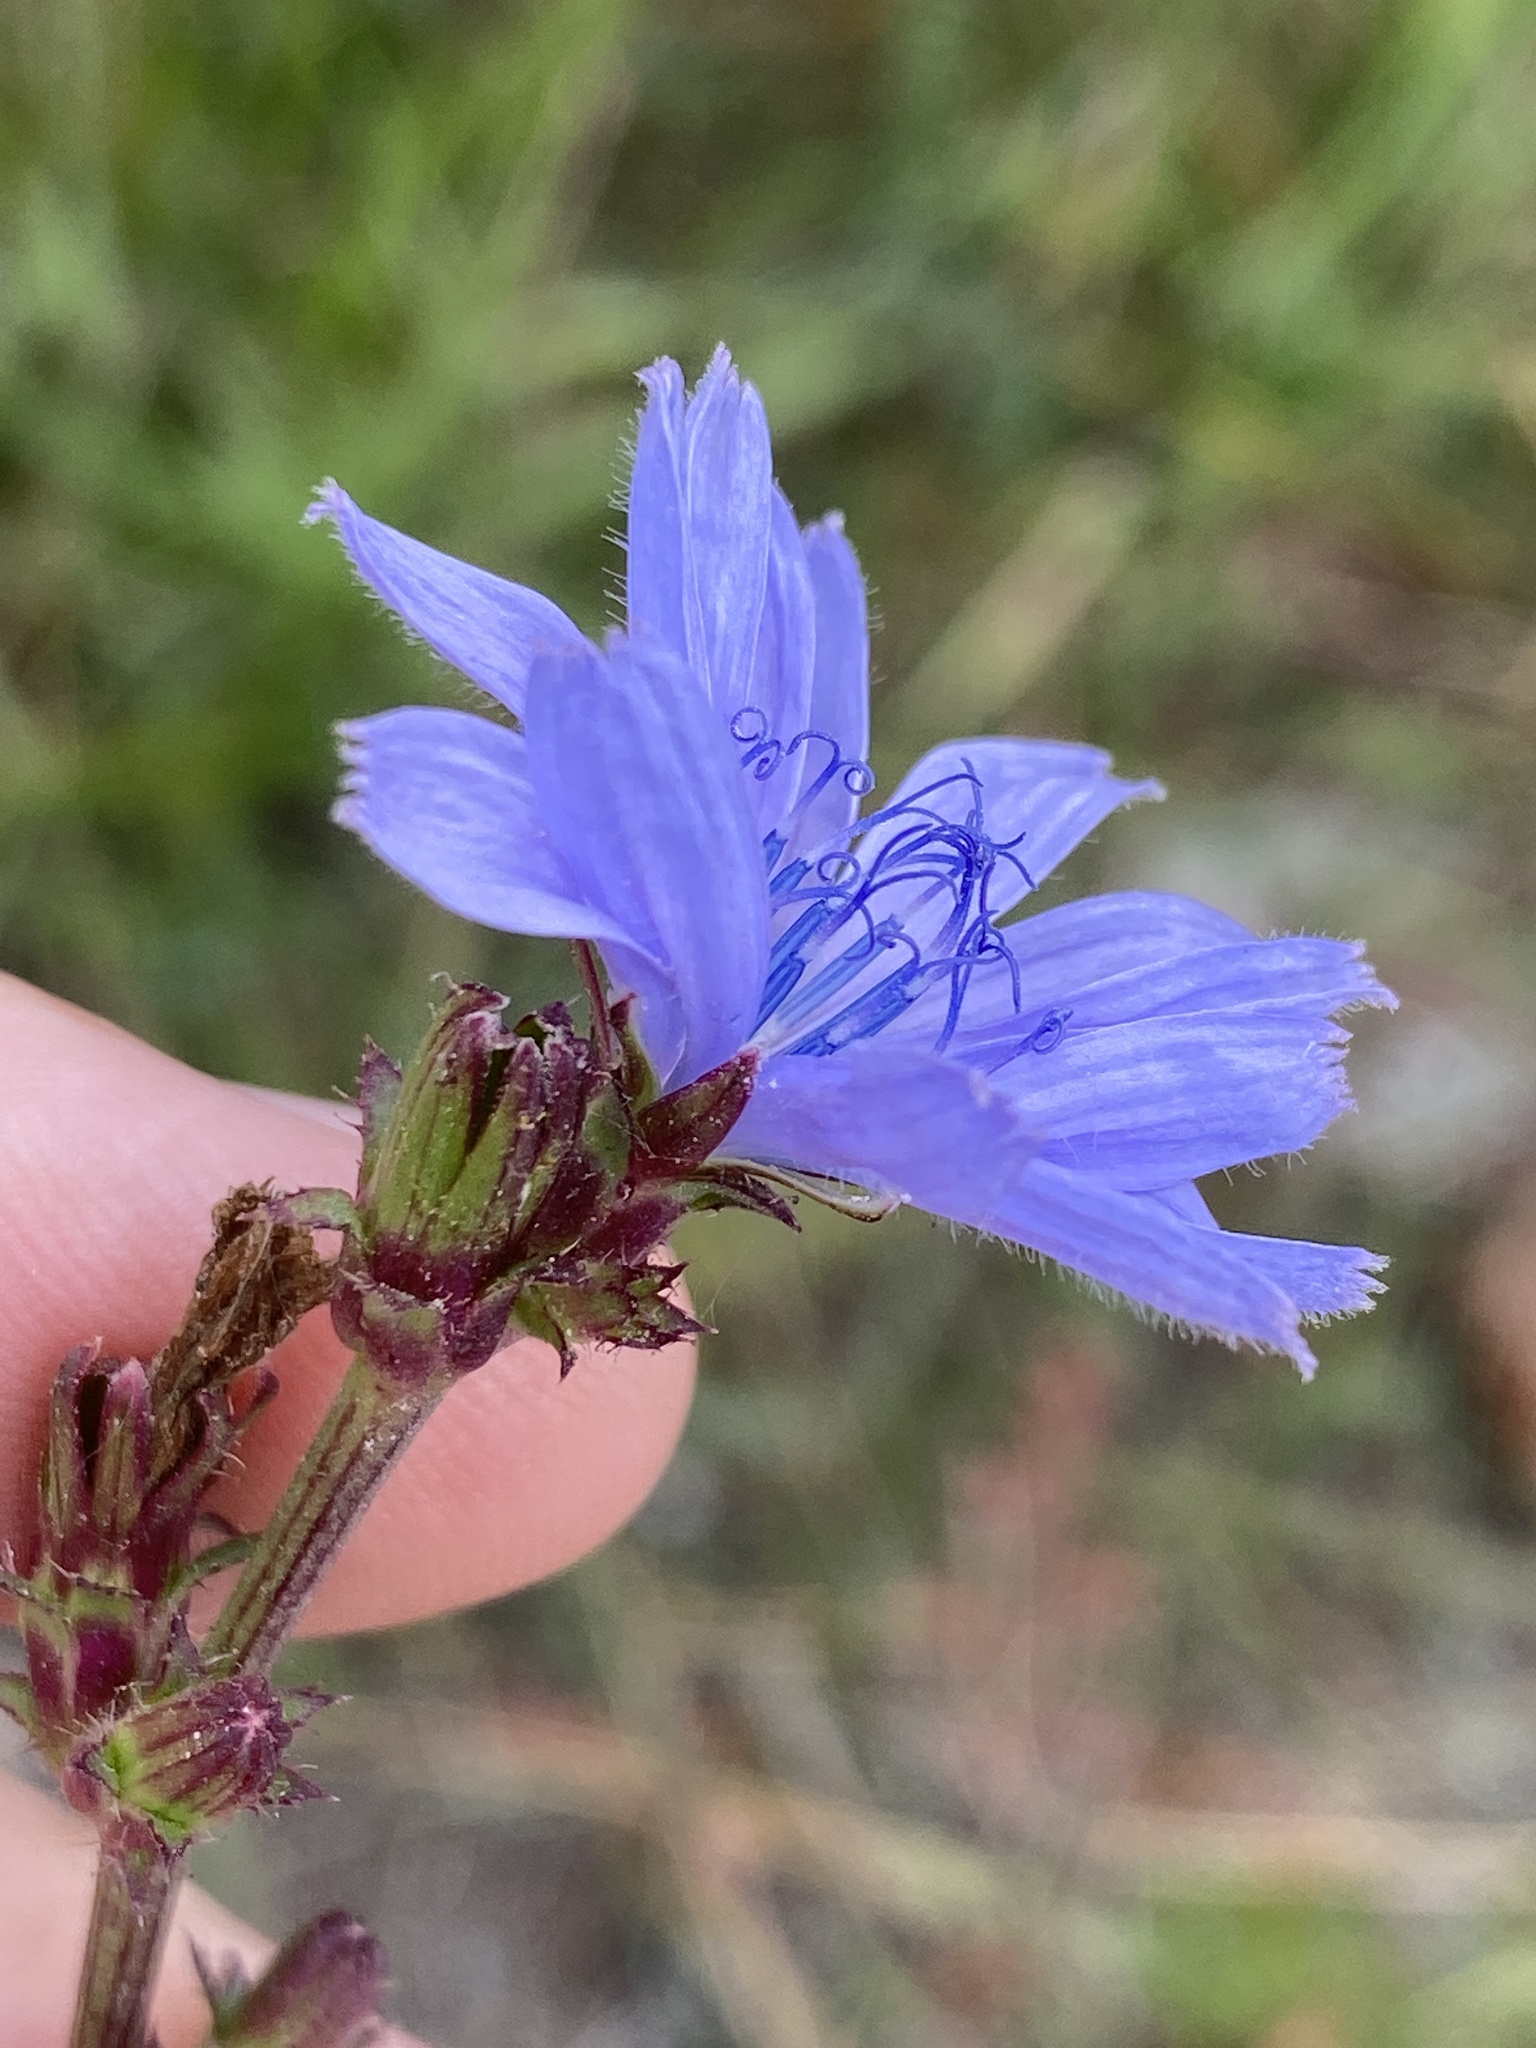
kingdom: Plantae
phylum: Tracheophyta
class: Magnoliopsida
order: Asterales
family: Asteraceae
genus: Cichorium
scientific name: Cichorium intybus
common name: Chicory
